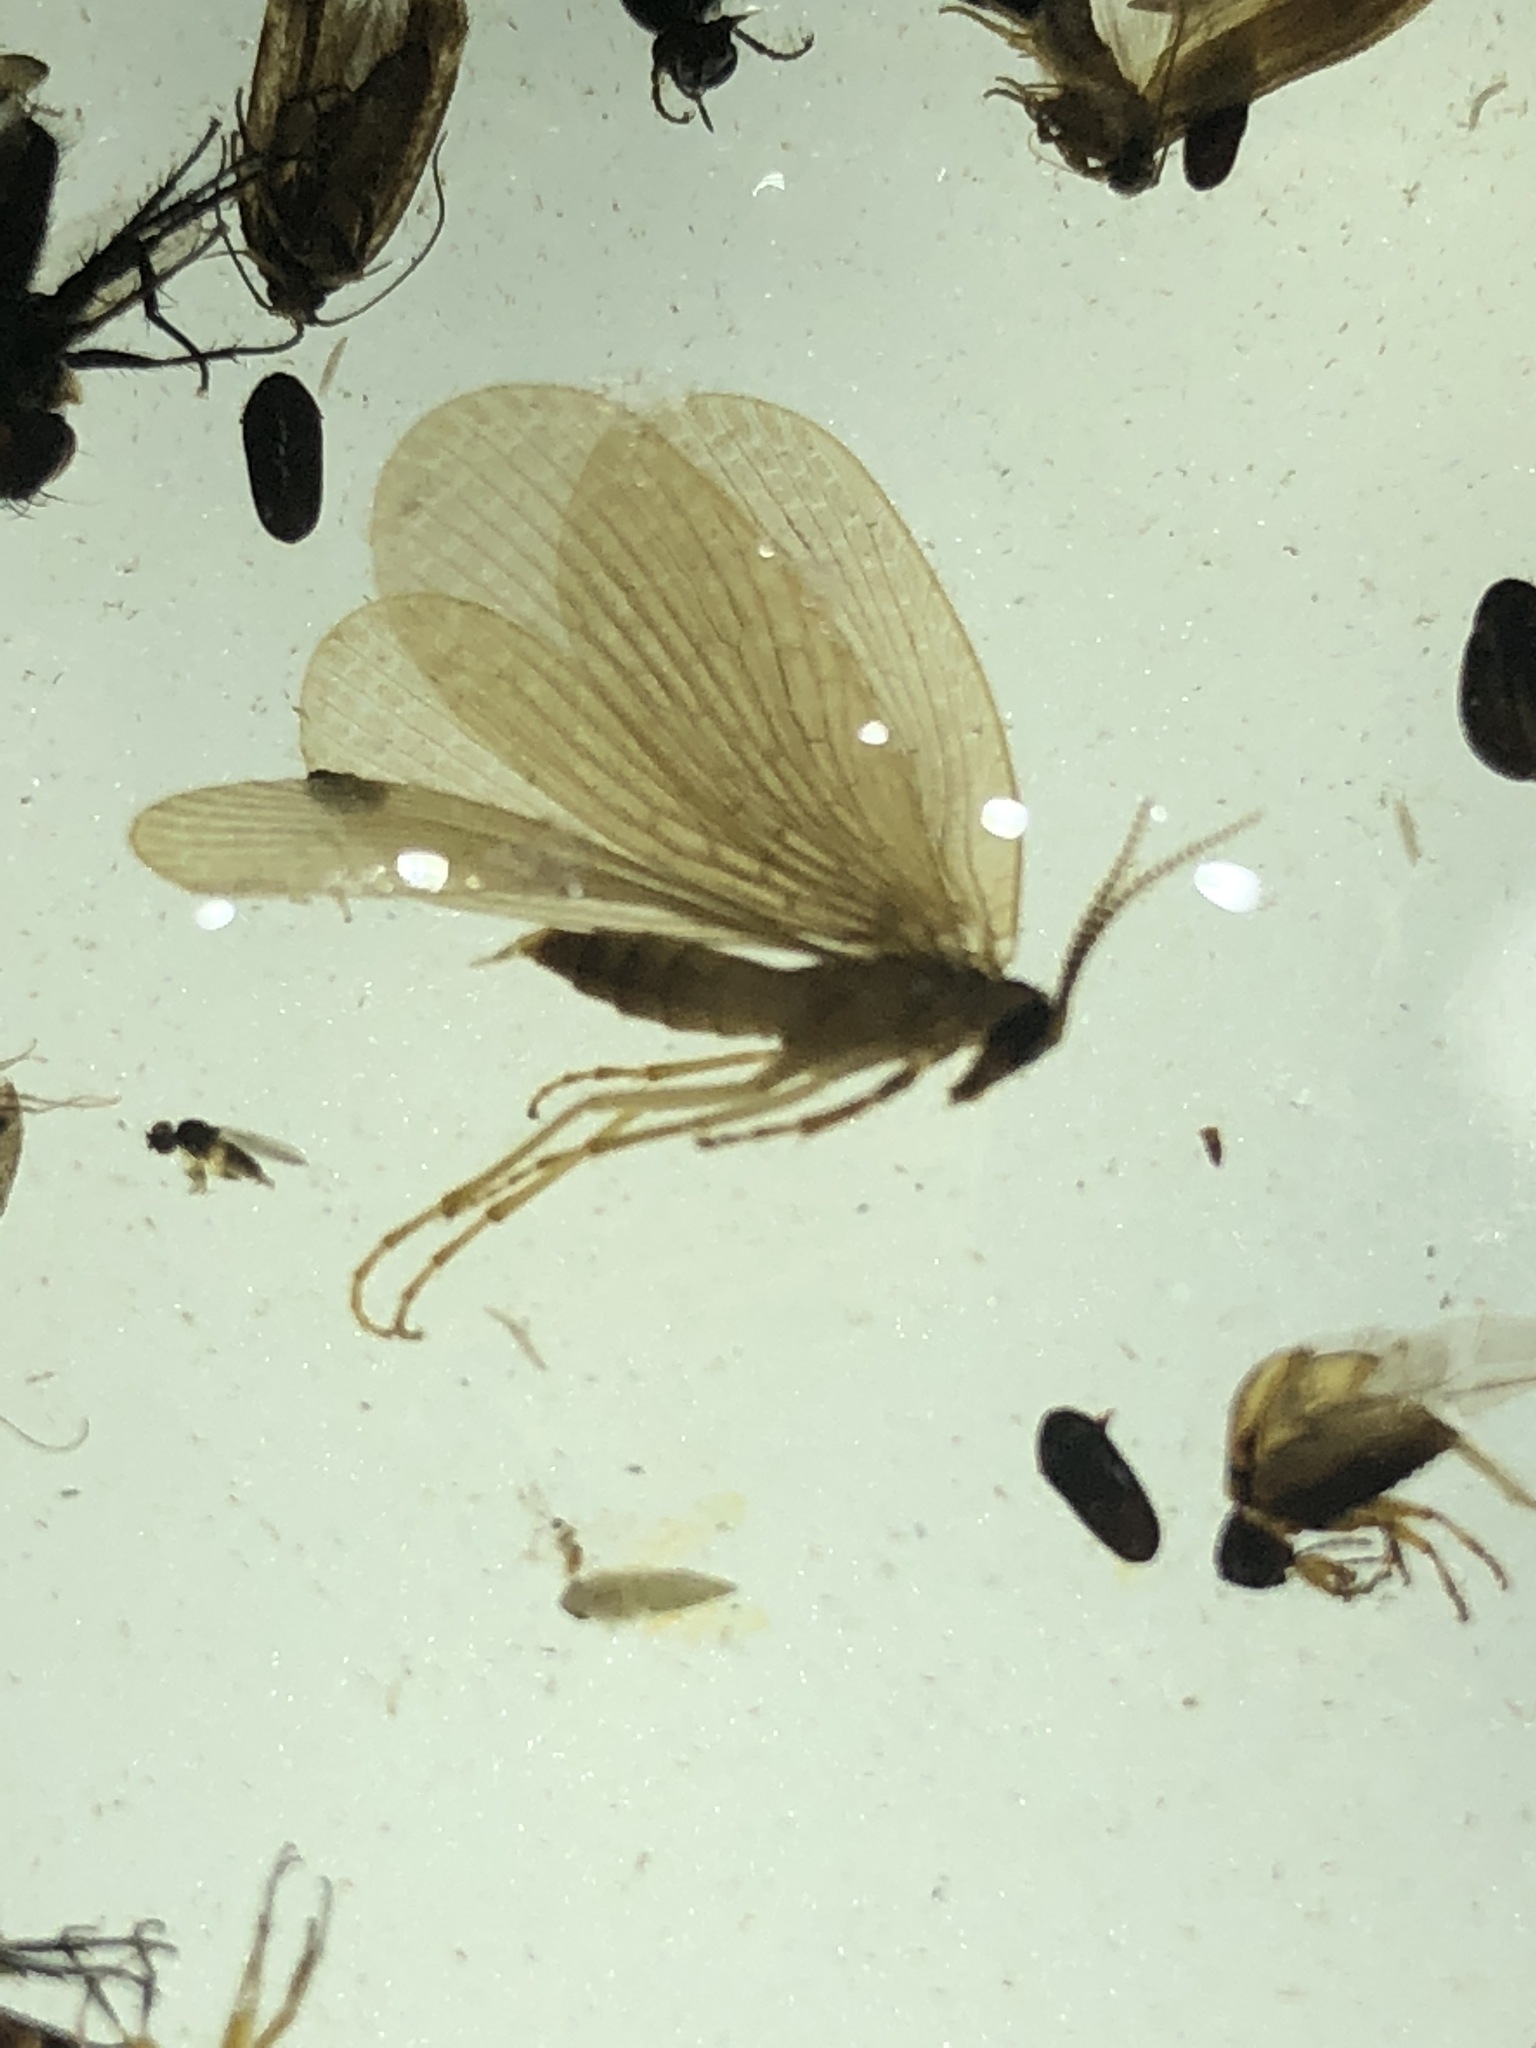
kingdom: Animalia
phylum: Arthropoda
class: Insecta
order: Mecoptera
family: Meropeidae
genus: Merope
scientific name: Merope tuber
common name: Forcepfly
